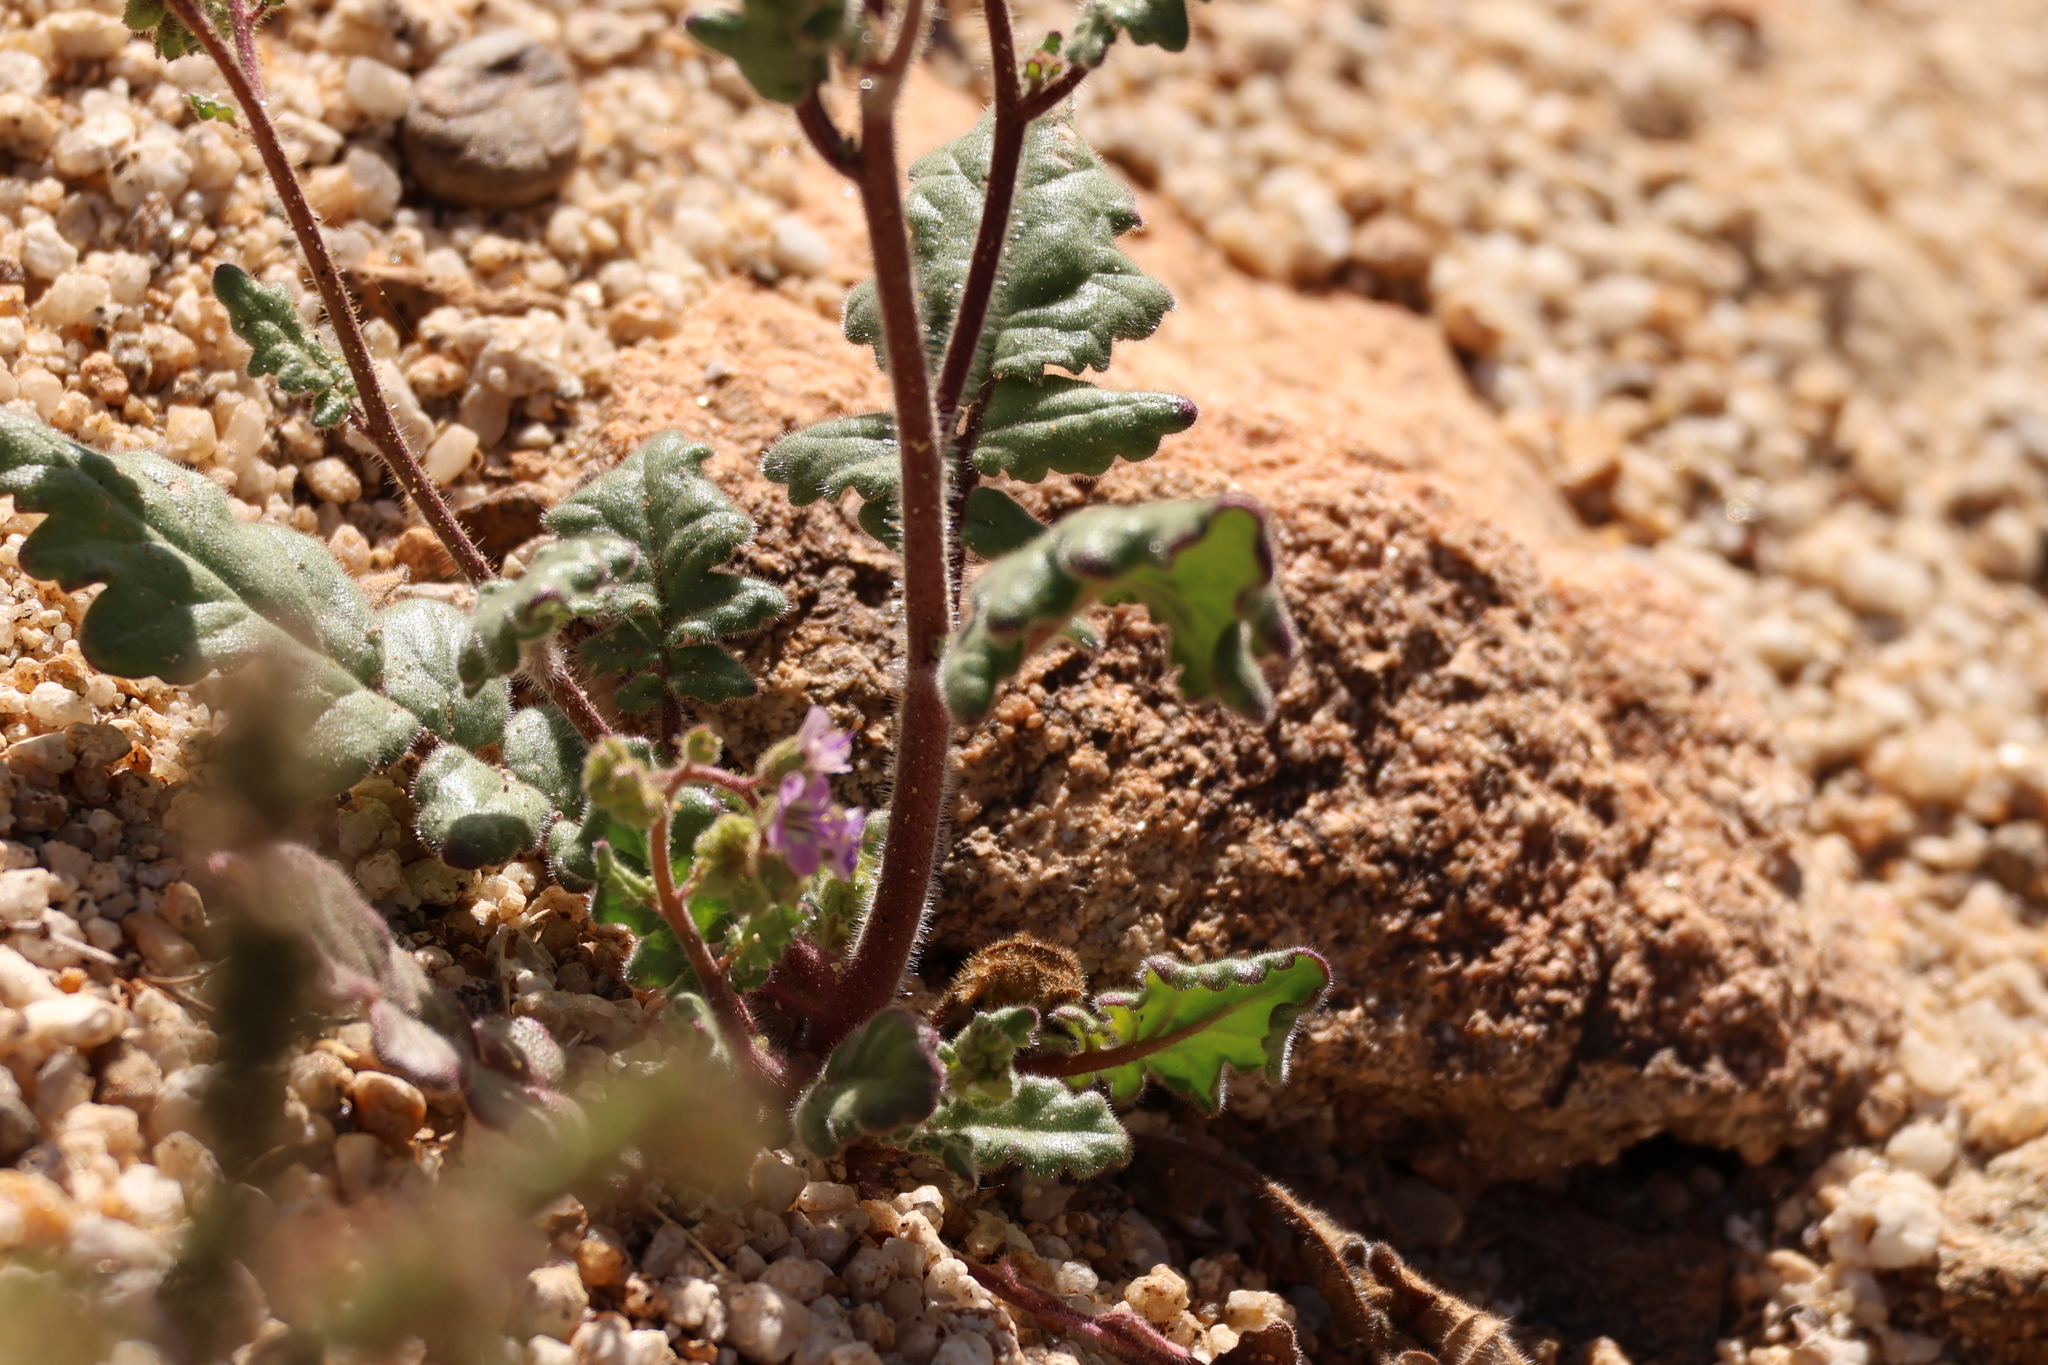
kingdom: Plantae
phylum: Tracheophyta
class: Magnoliopsida
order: Boraginales
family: Hydrophyllaceae
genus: Phacelia
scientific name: Phacelia crenulata
